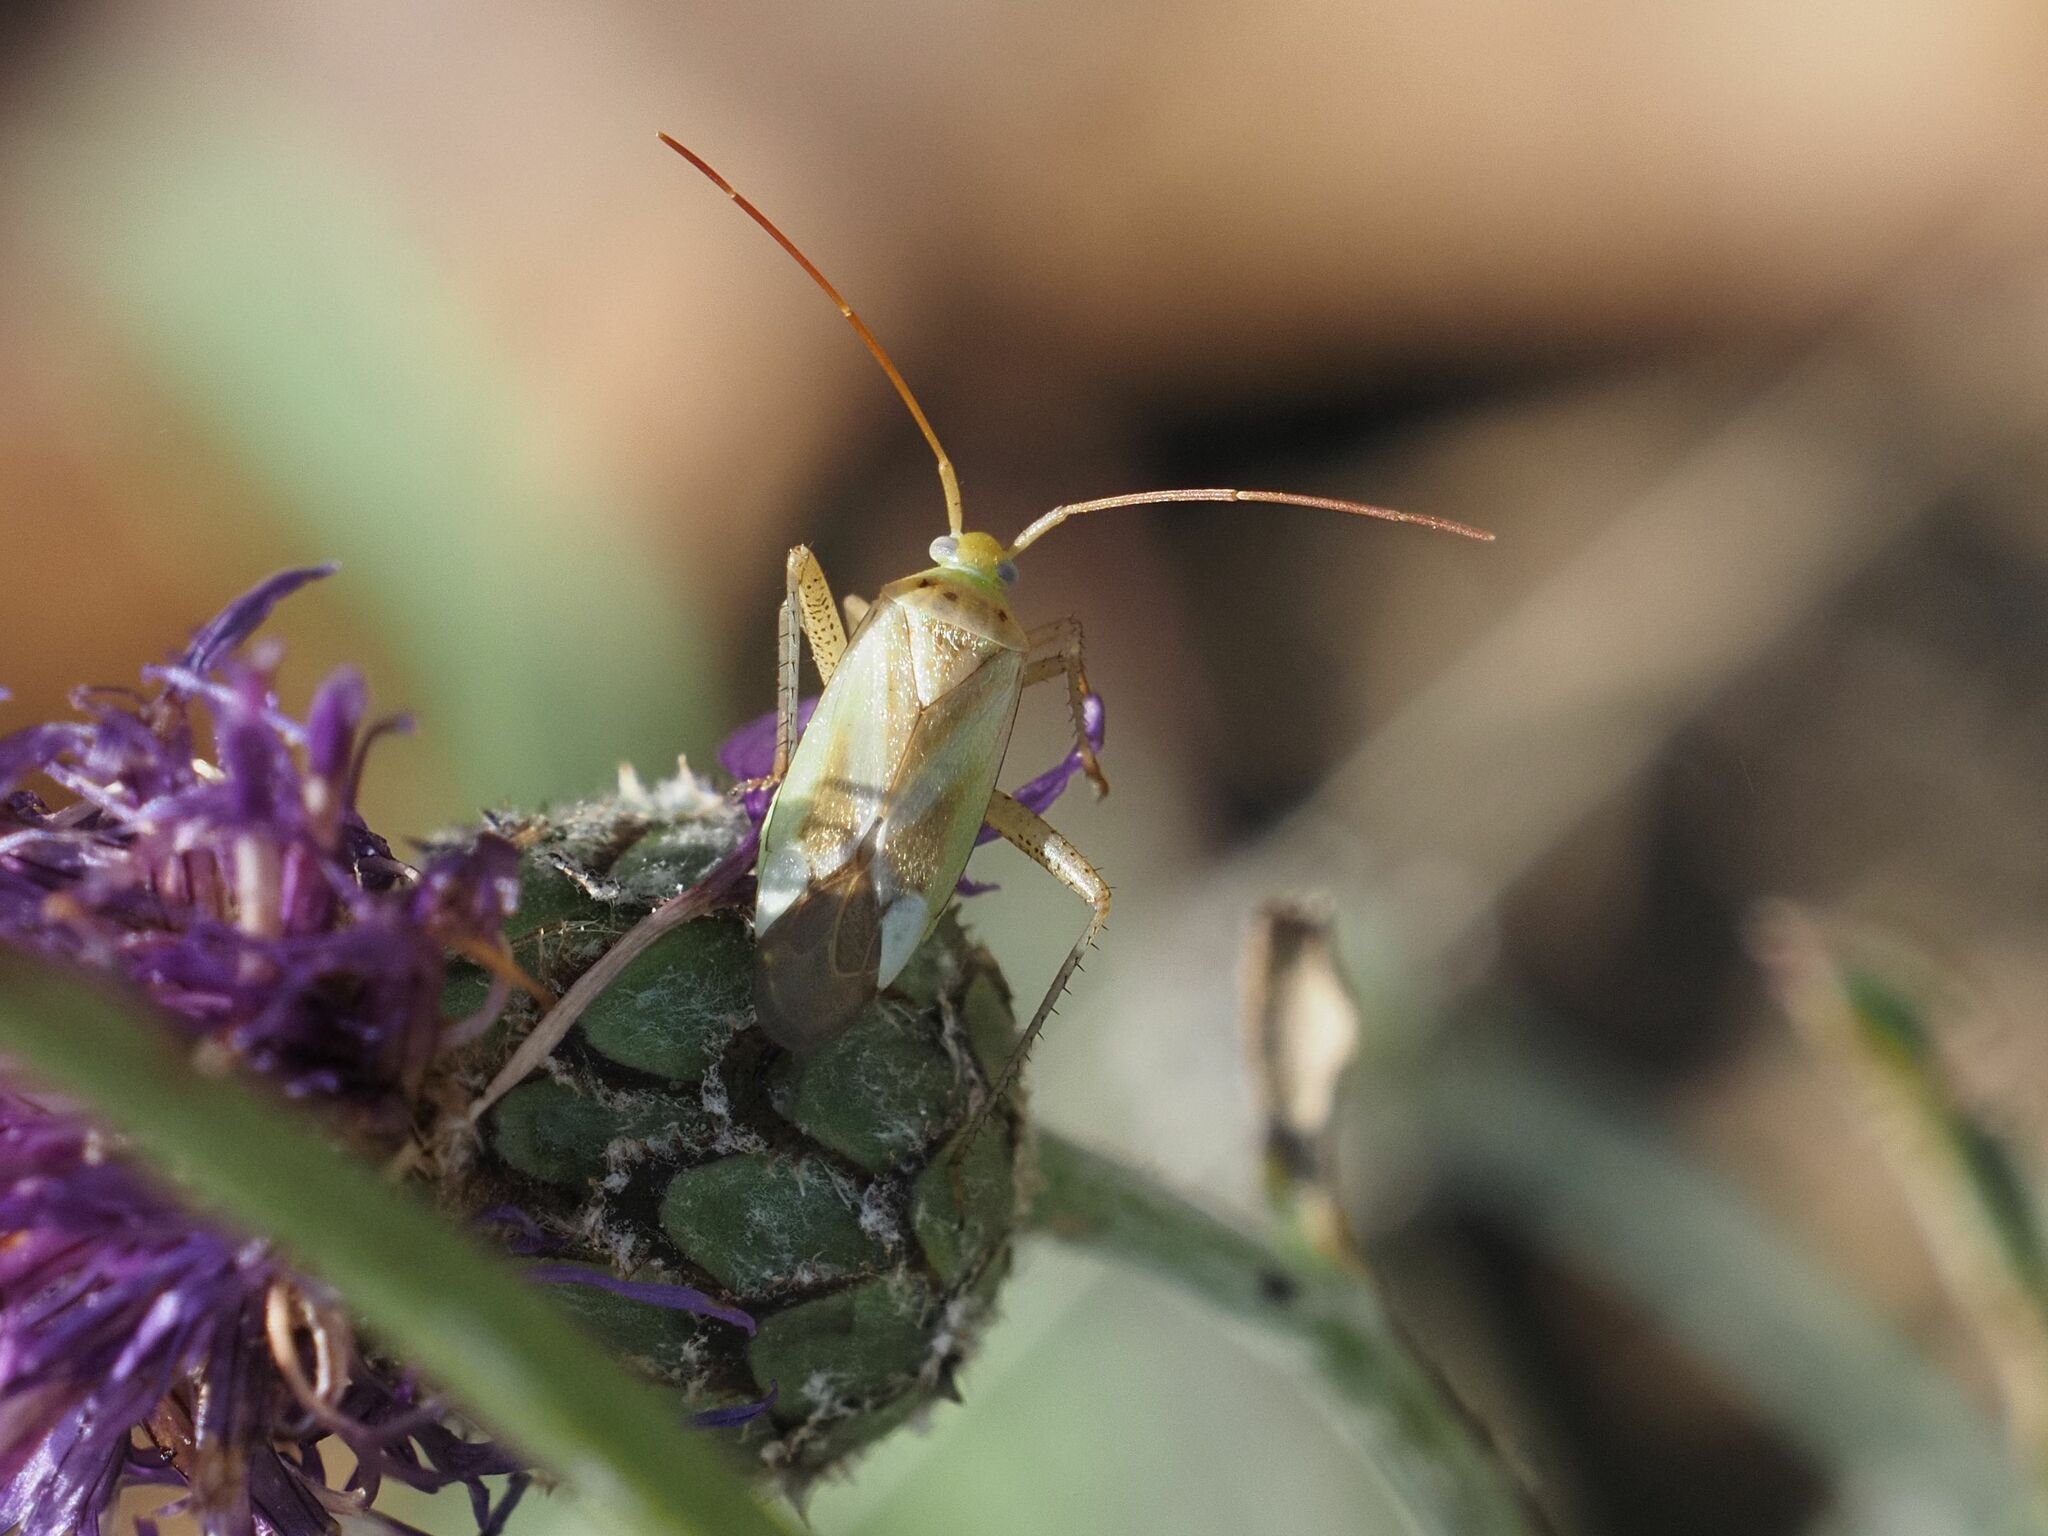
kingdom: Animalia
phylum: Arthropoda
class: Insecta
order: Hemiptera
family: Miridae
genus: Adelphocoris
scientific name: Adelphocoris lineolatus
